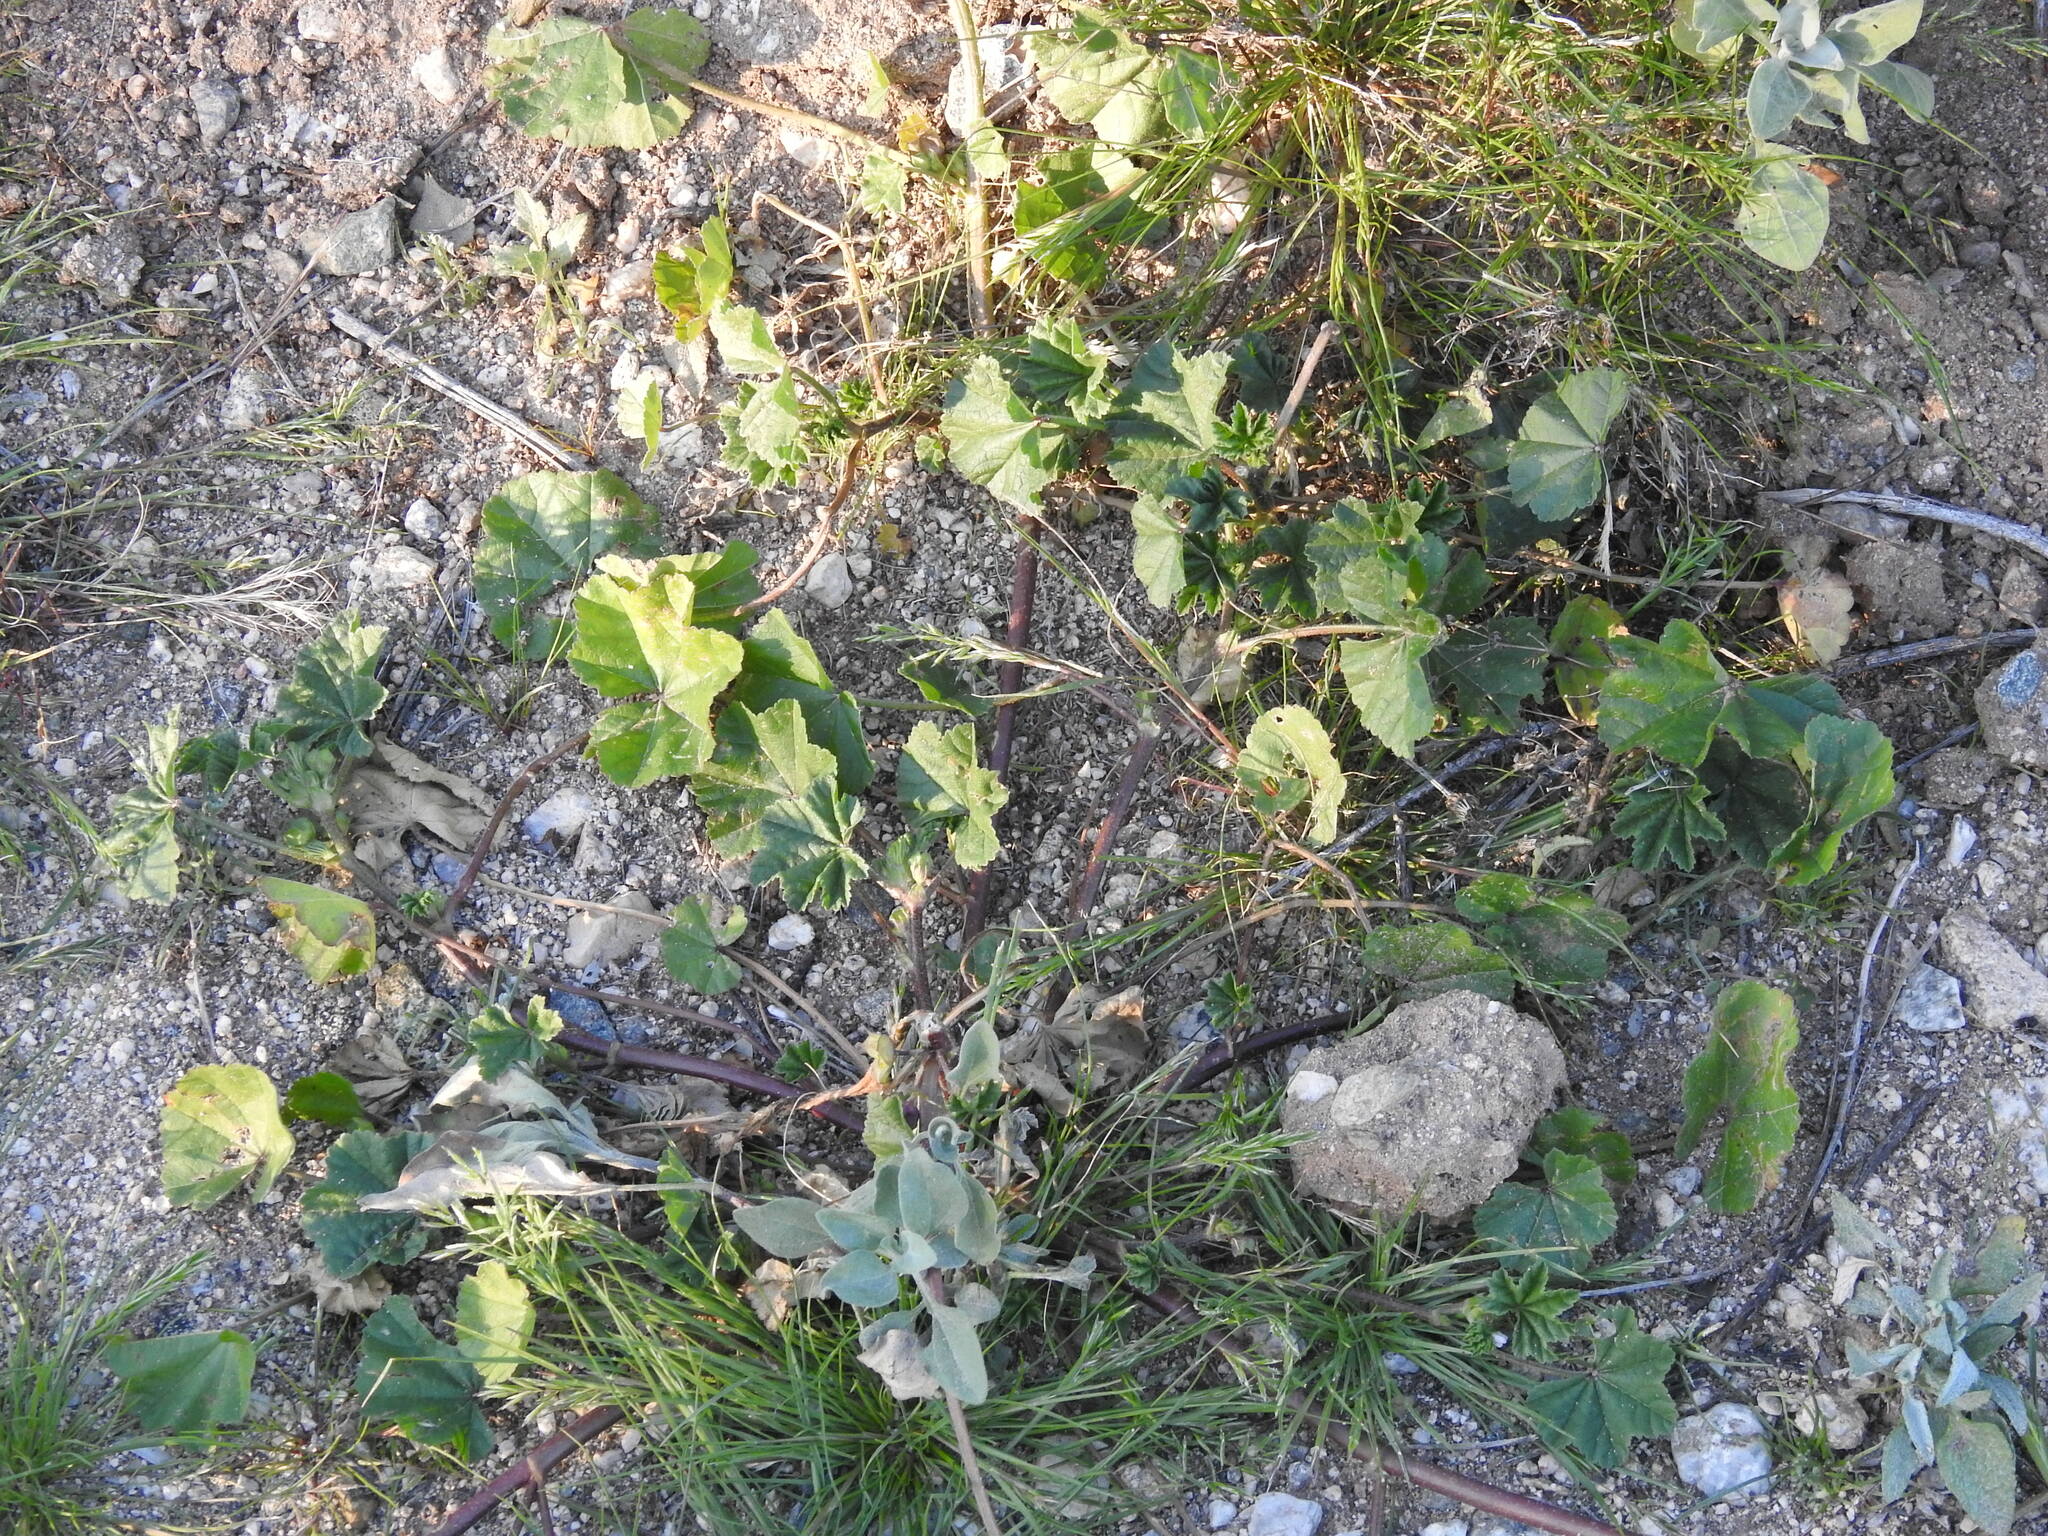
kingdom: Plantae
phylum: Tracheophyta
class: Magnoliopsida
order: Malvales
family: Malvaceae
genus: Malva
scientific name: Malva parviflora
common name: Least mallow
